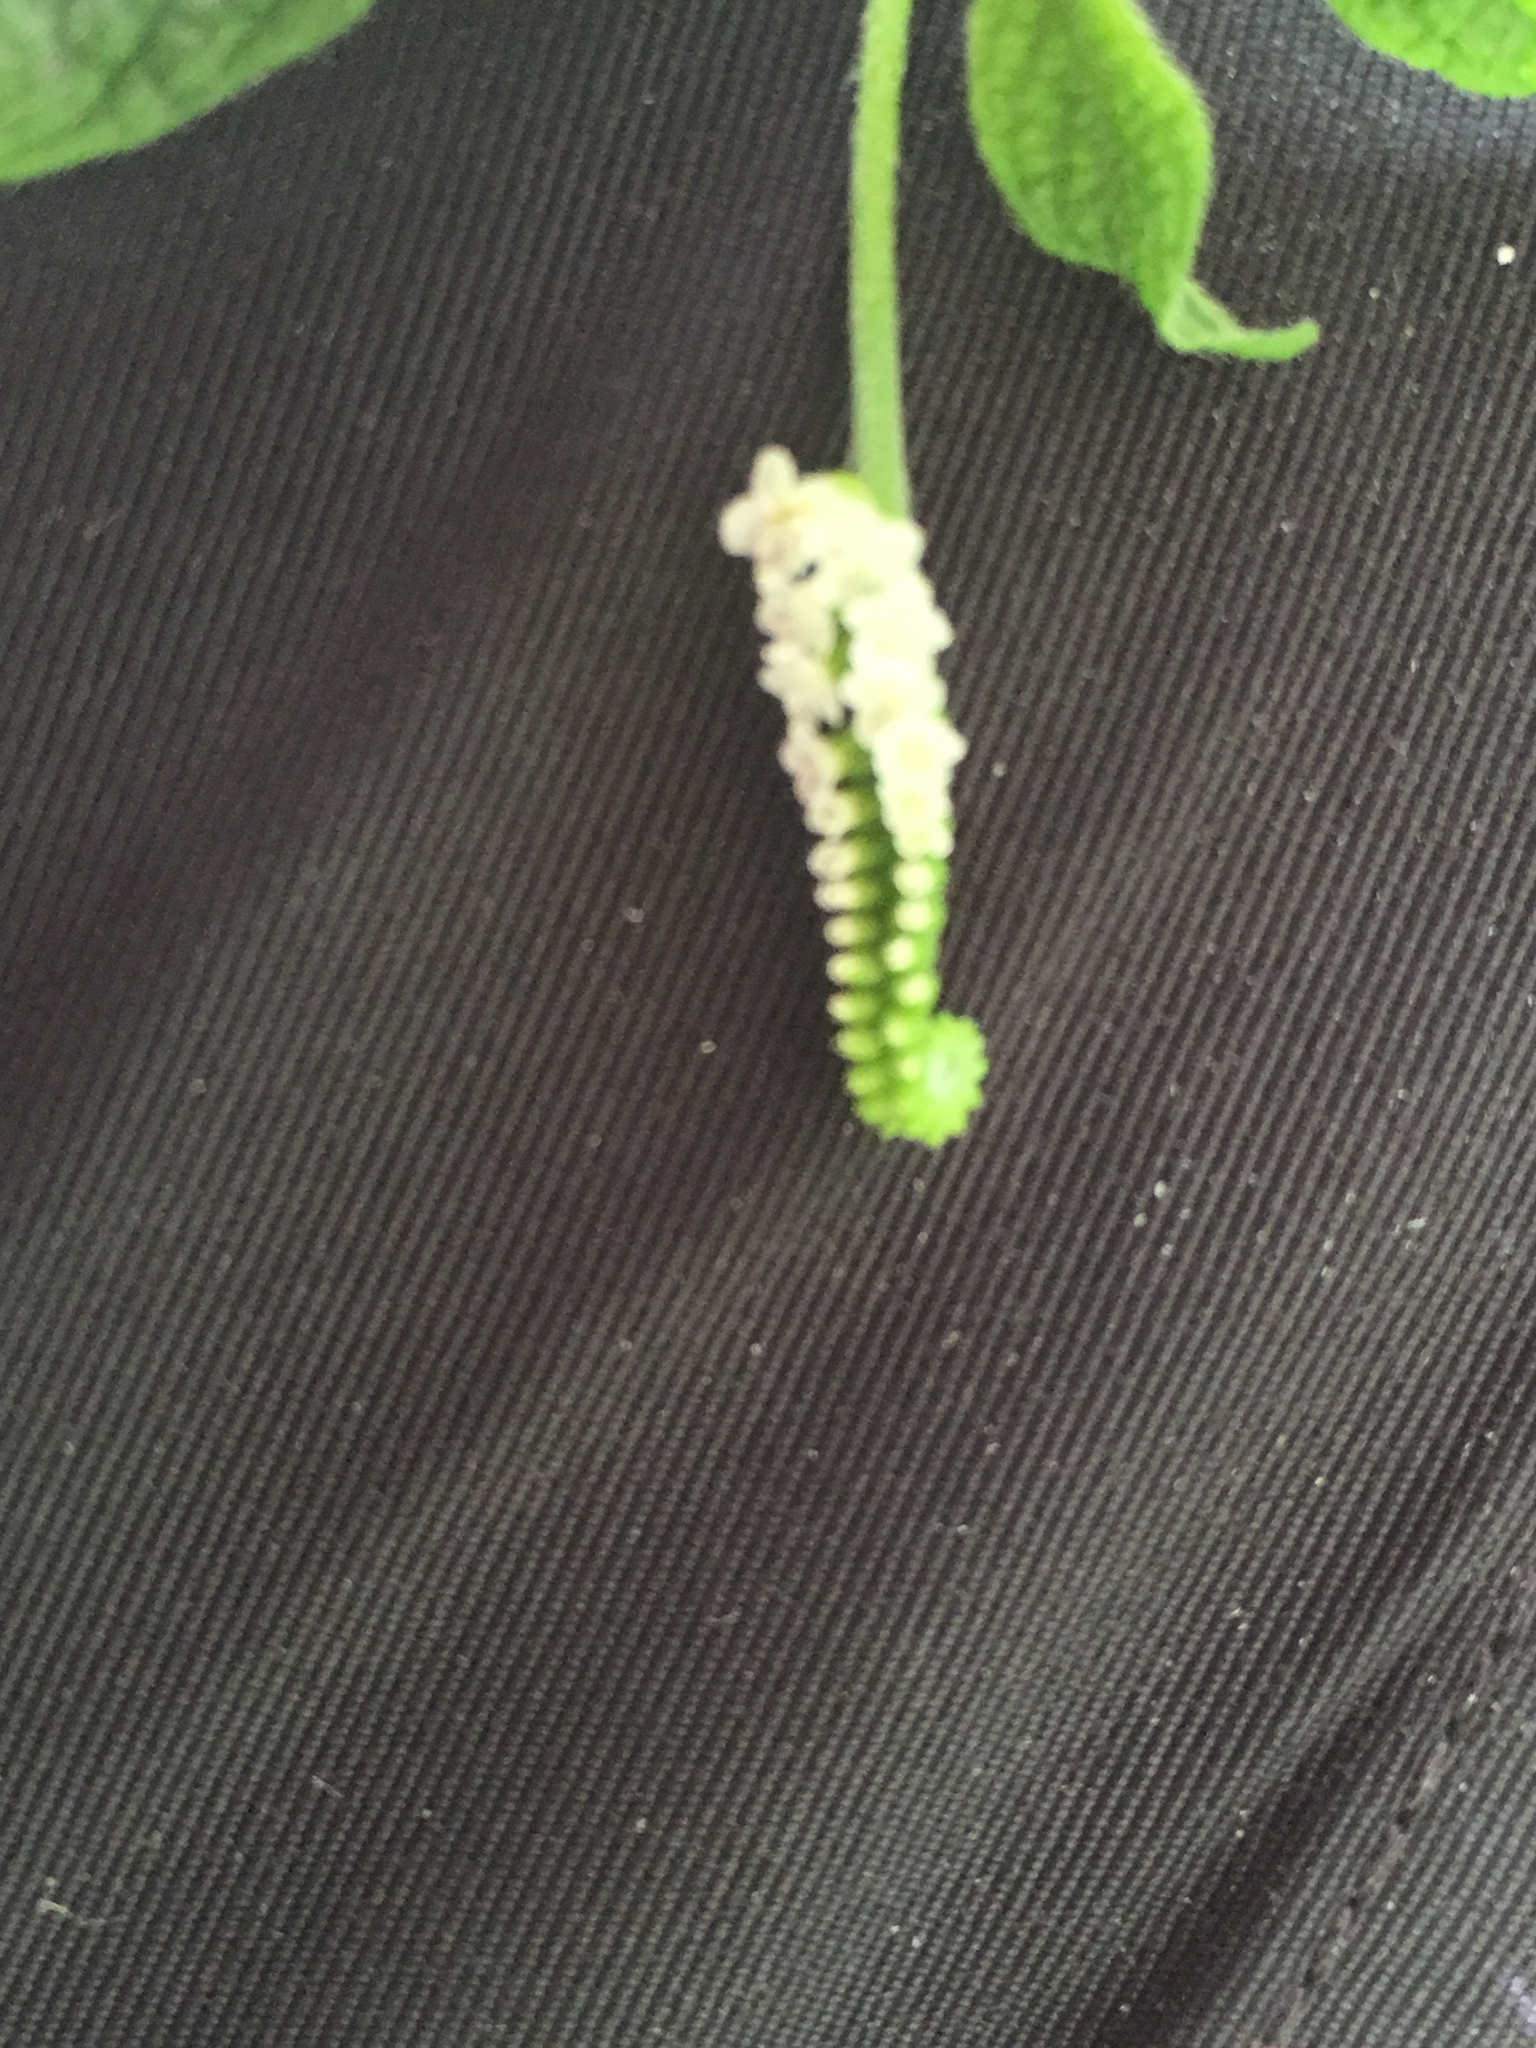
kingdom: Plantae
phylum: Tracheophyta
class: Magnoliopsida
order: Boraginales
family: Heliotropiaceae
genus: Heliotropium
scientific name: Heliotropium angiospermum
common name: Eye bright
